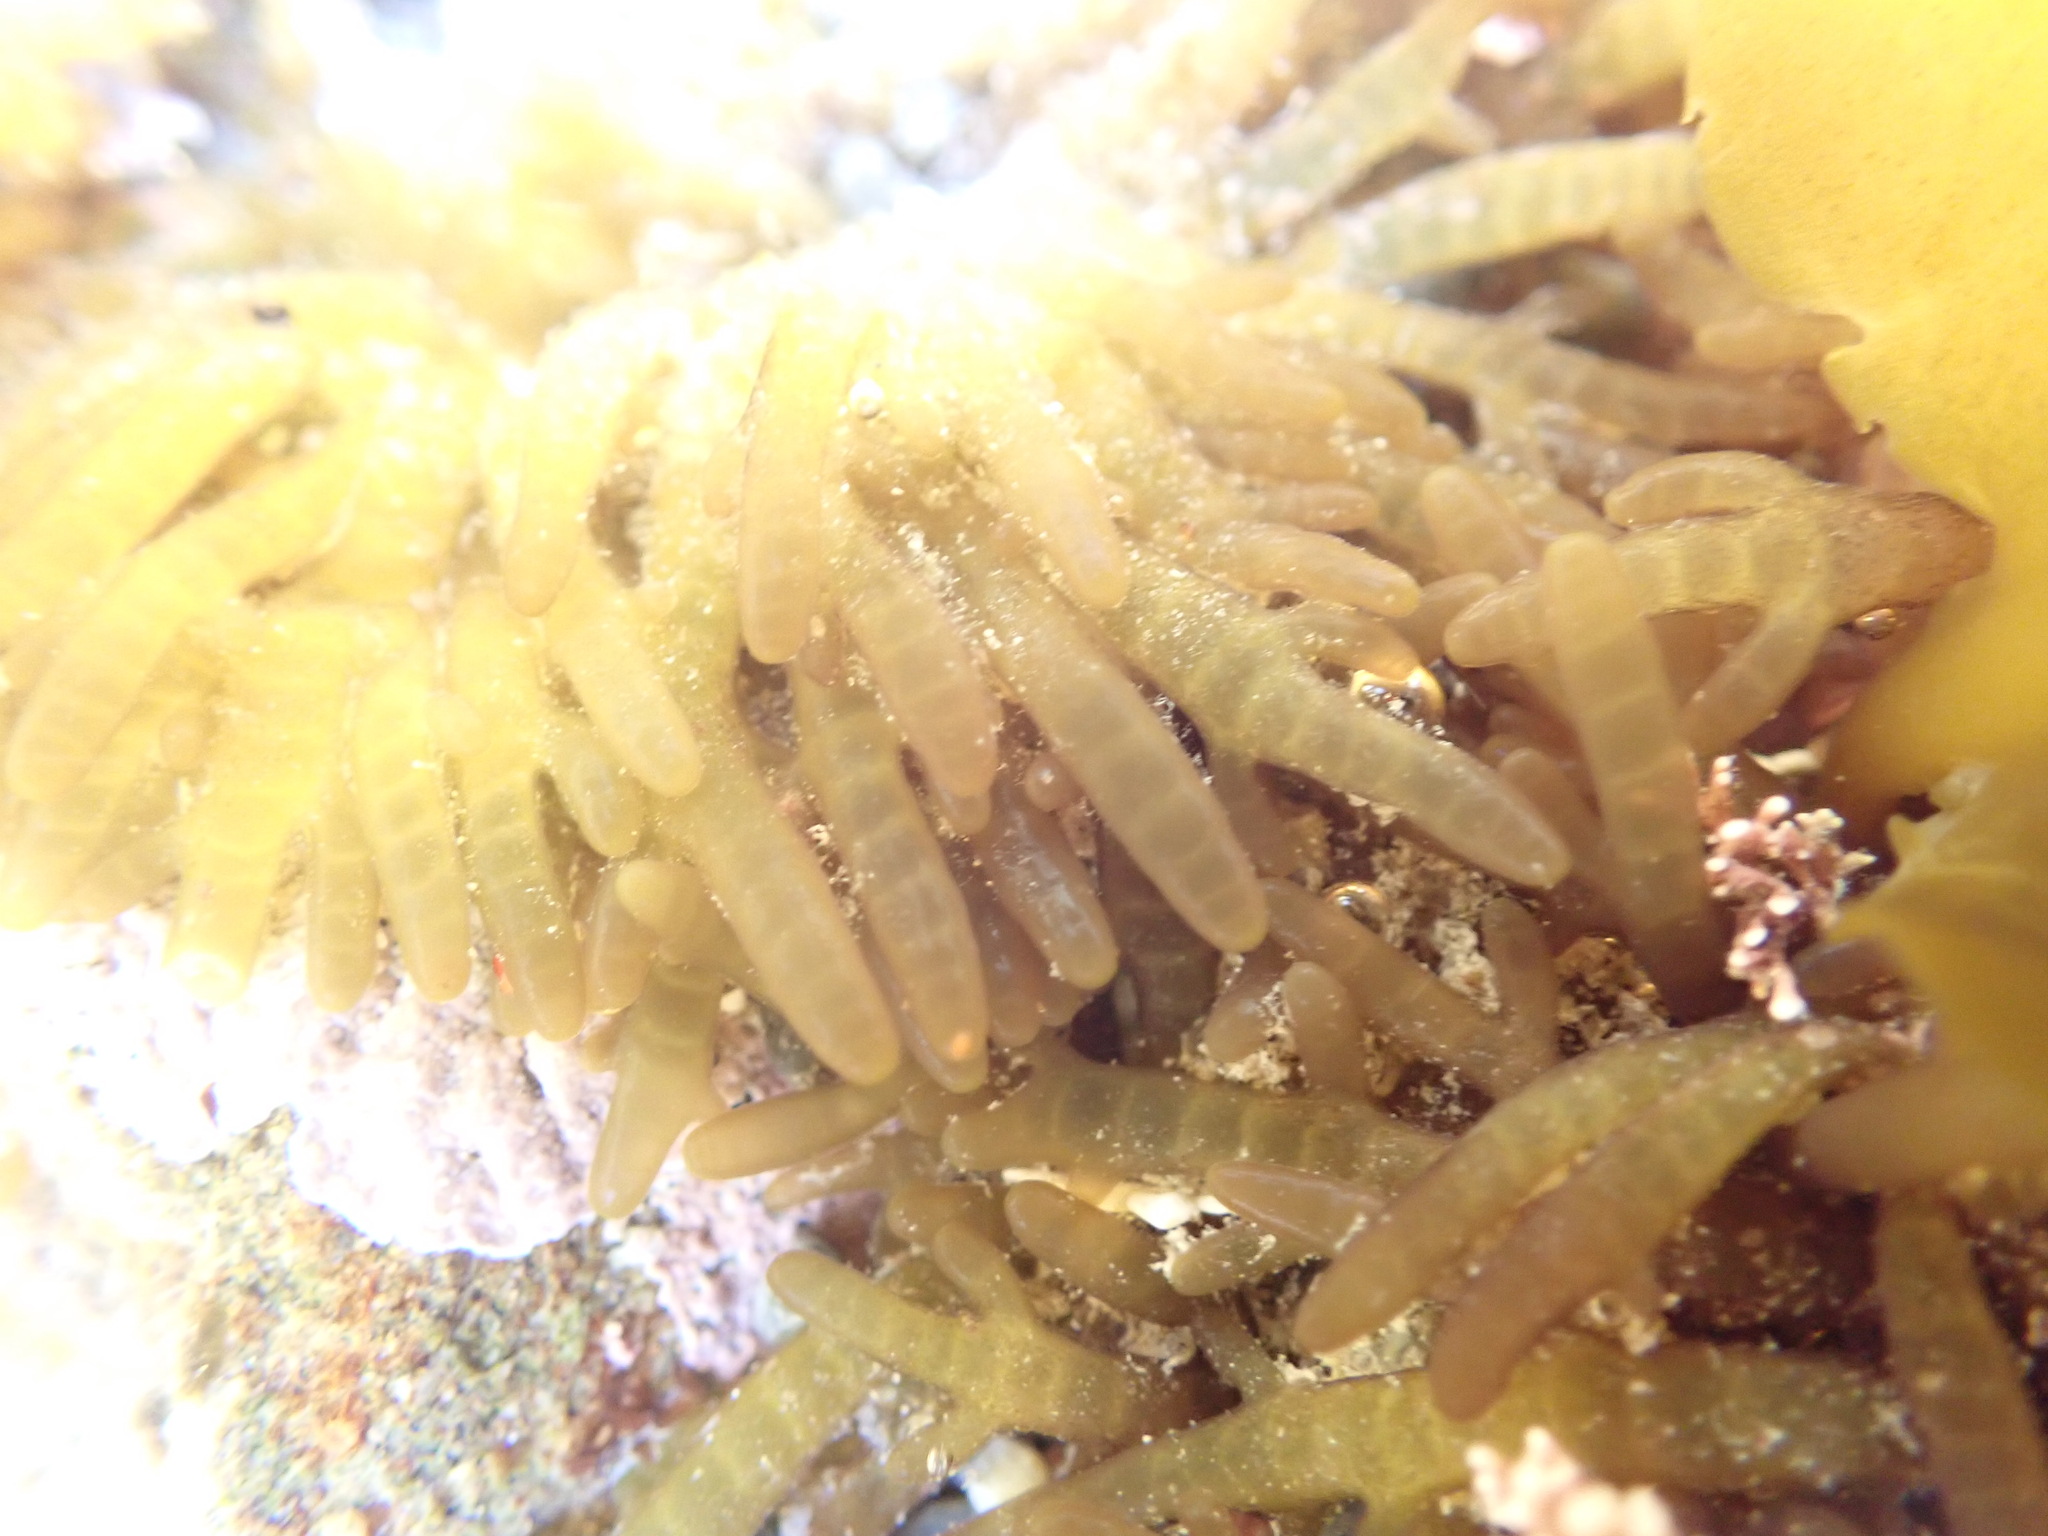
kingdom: Plantae
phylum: Rhodophyta
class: Florideophyceae
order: Rhodymeniales
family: Champiaceae
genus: Champia
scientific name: Champia laingii
